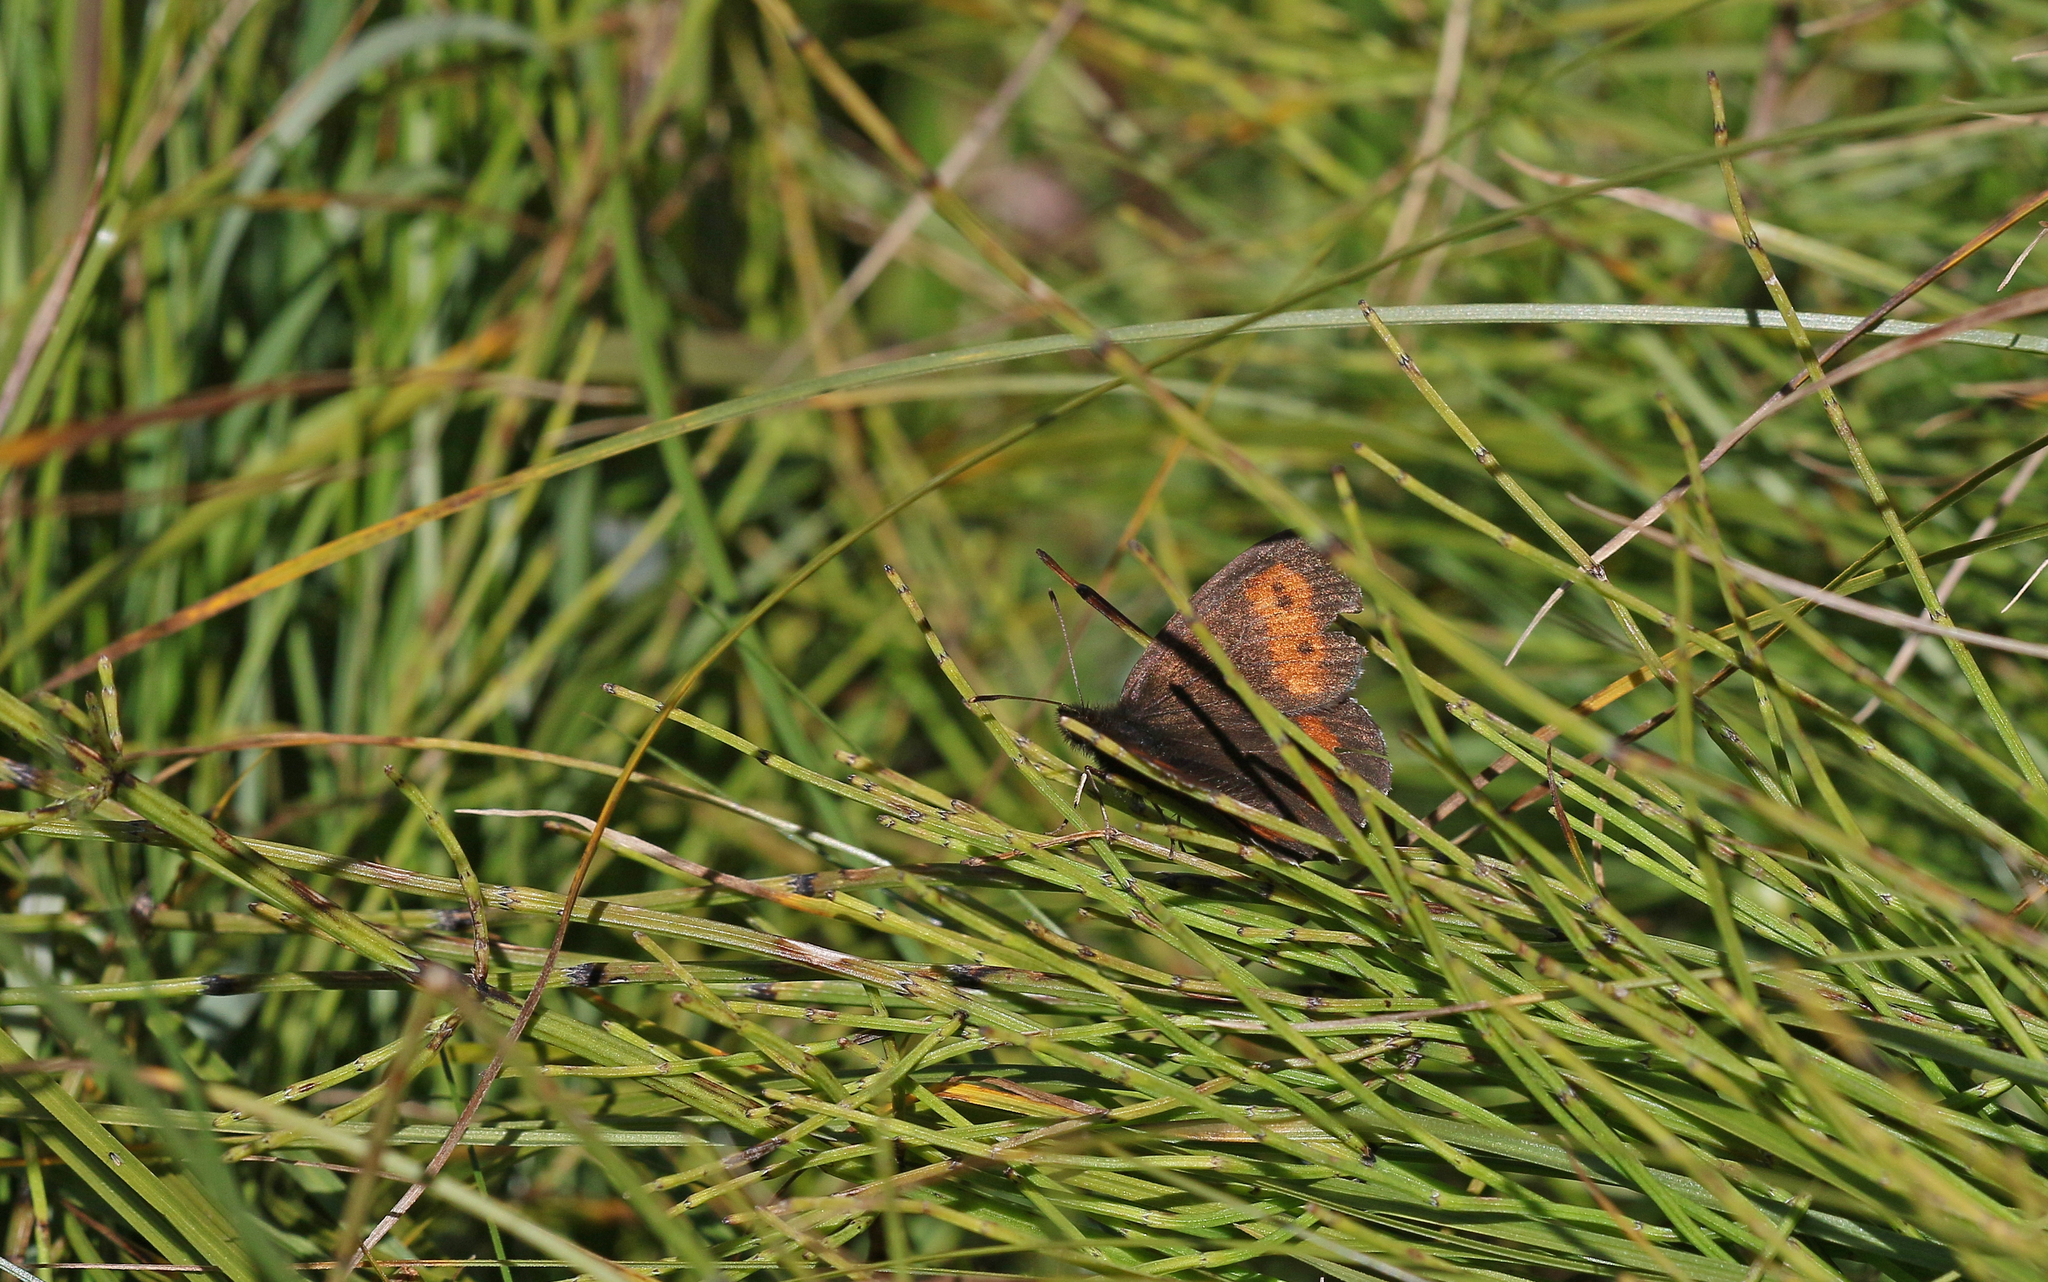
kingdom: Animalia
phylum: Arthropoda
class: Insecta
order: Lepidoptera
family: Nymphalidae
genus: Erebia
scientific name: Erebia euryale
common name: Large ringlet
